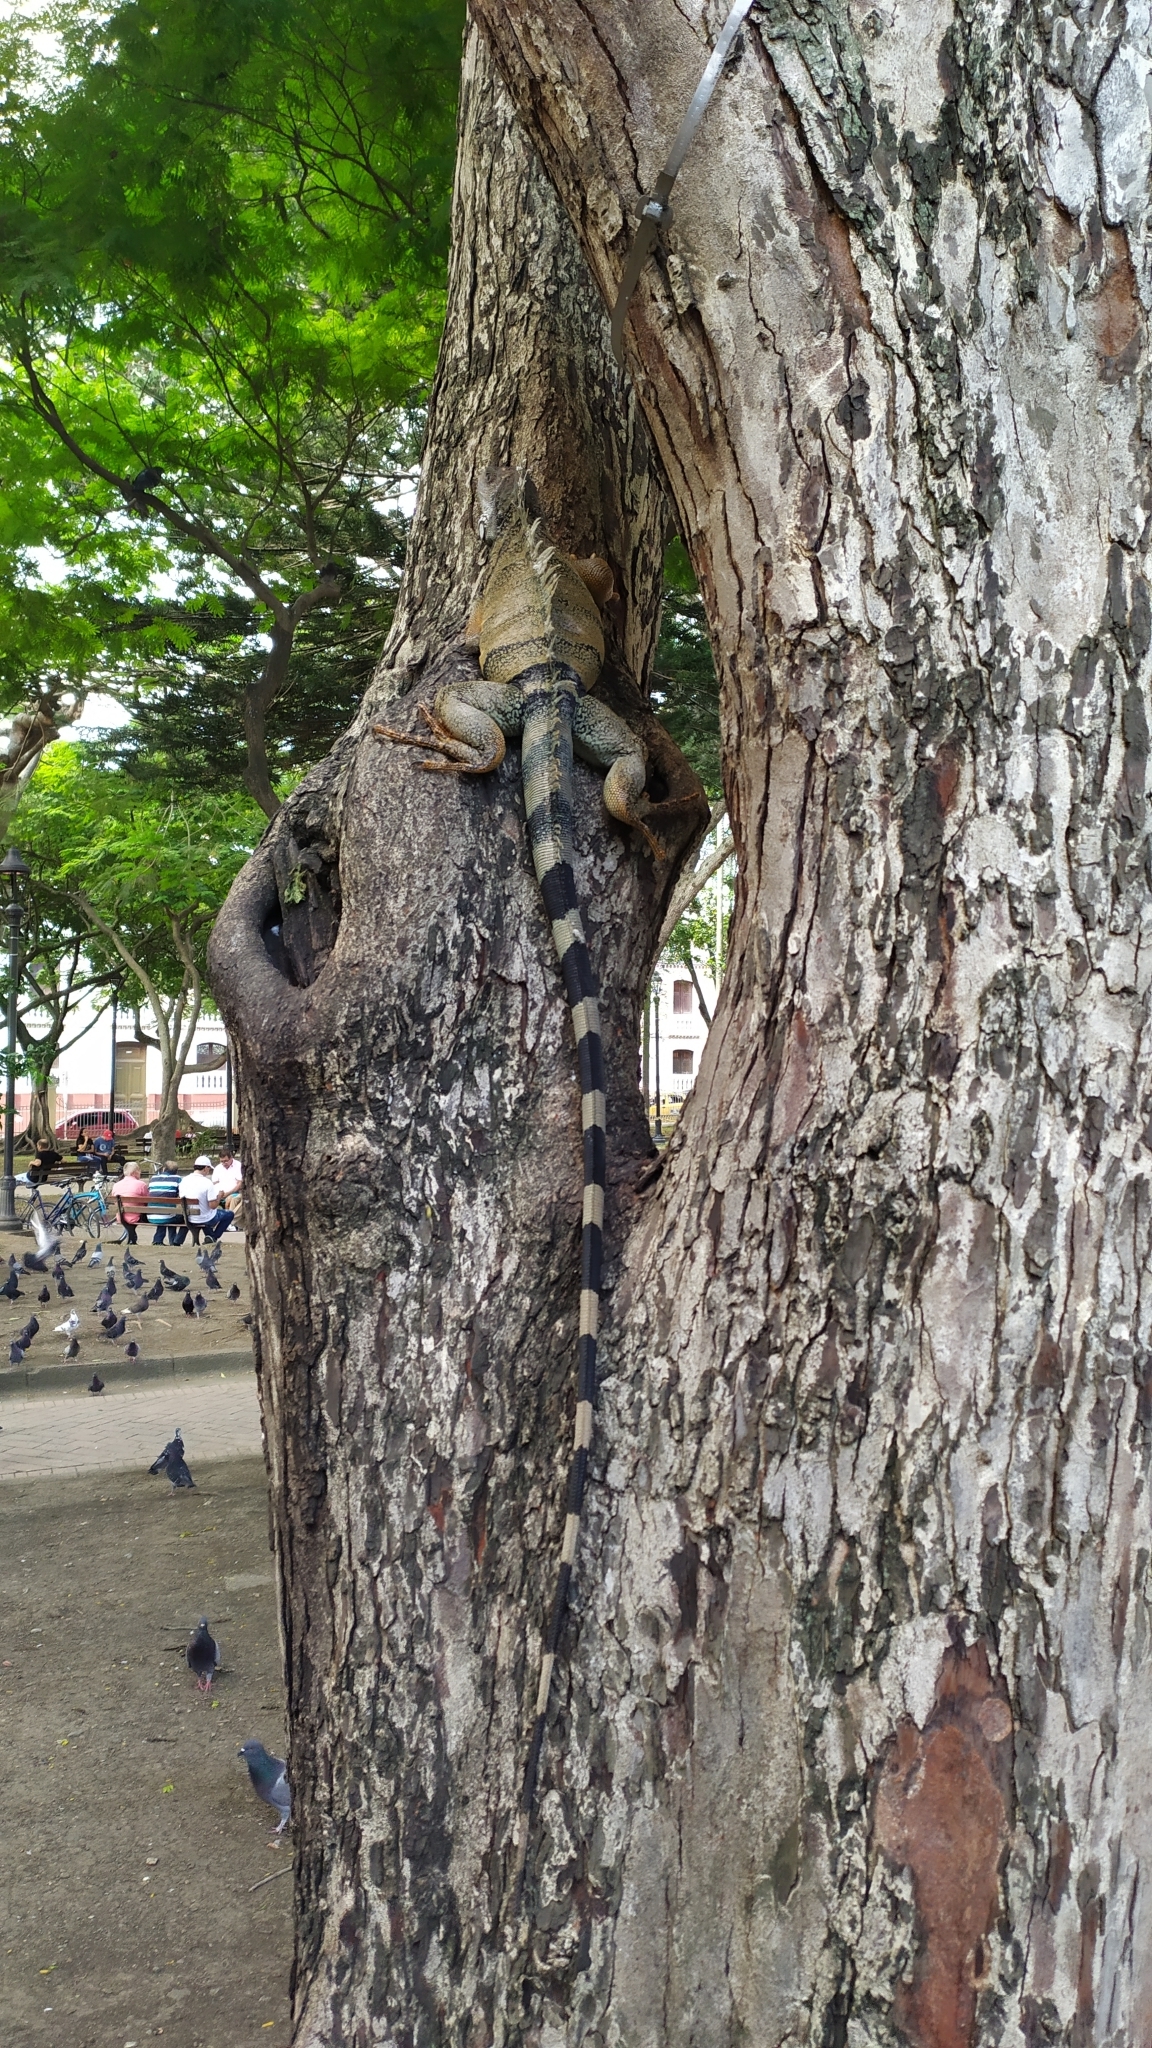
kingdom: Animalia
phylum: Chordata
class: Squamata
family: Iguanidae
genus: Iguana
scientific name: Iguana iguana
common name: Green iguana
